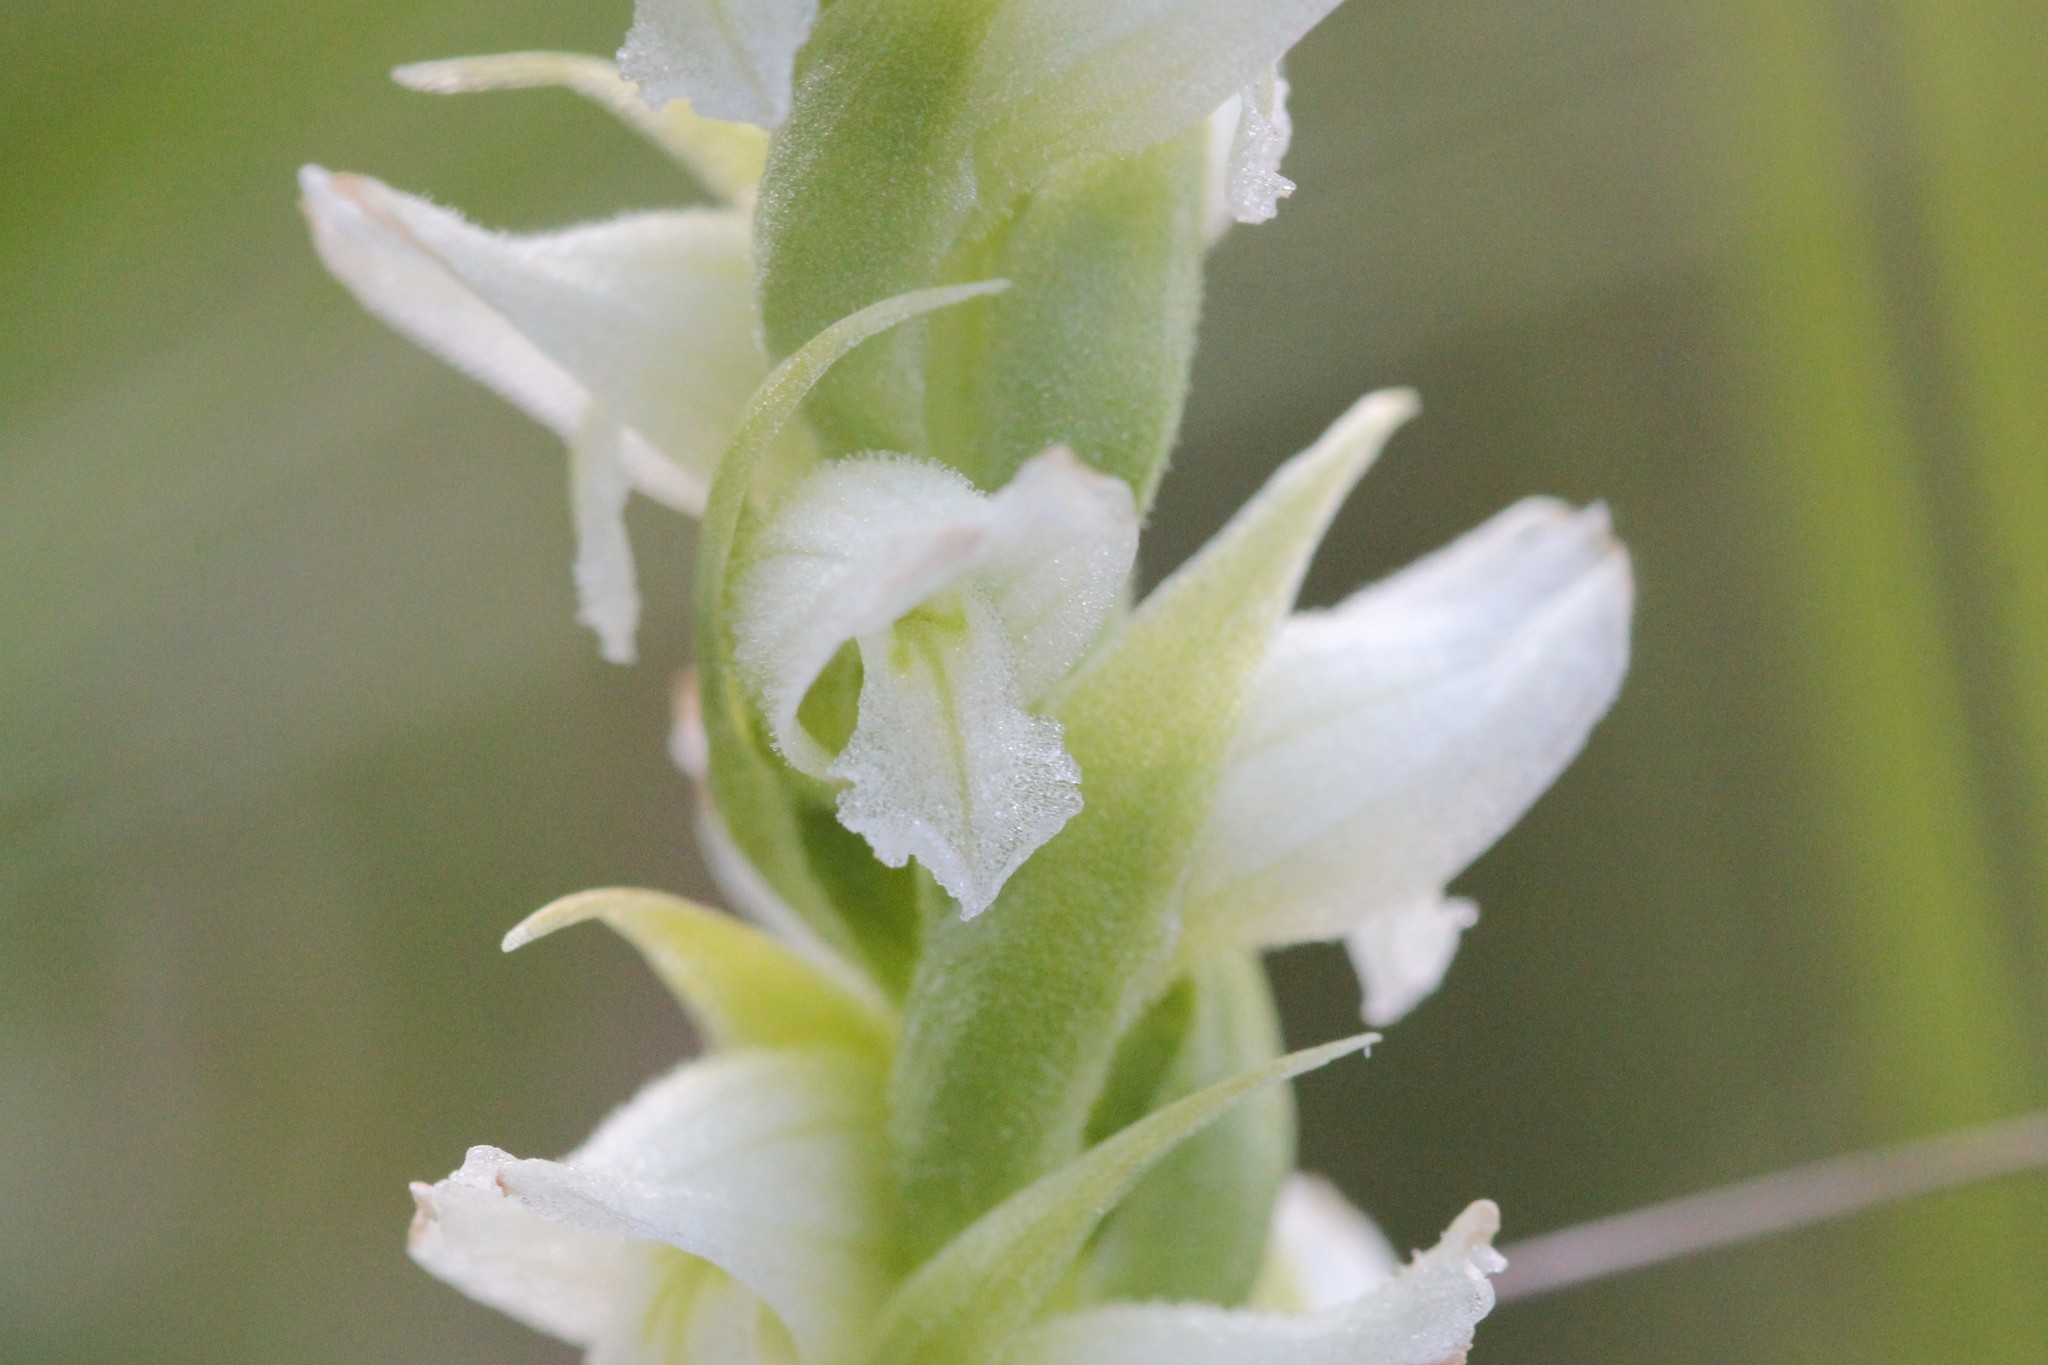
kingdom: Plantae
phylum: Tracheophyta
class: Liliopsida
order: Asparagales
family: Orchidaceae
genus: Spiranthes
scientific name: Spiranthes romanzoffiana
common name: Irish lady's-tresses
